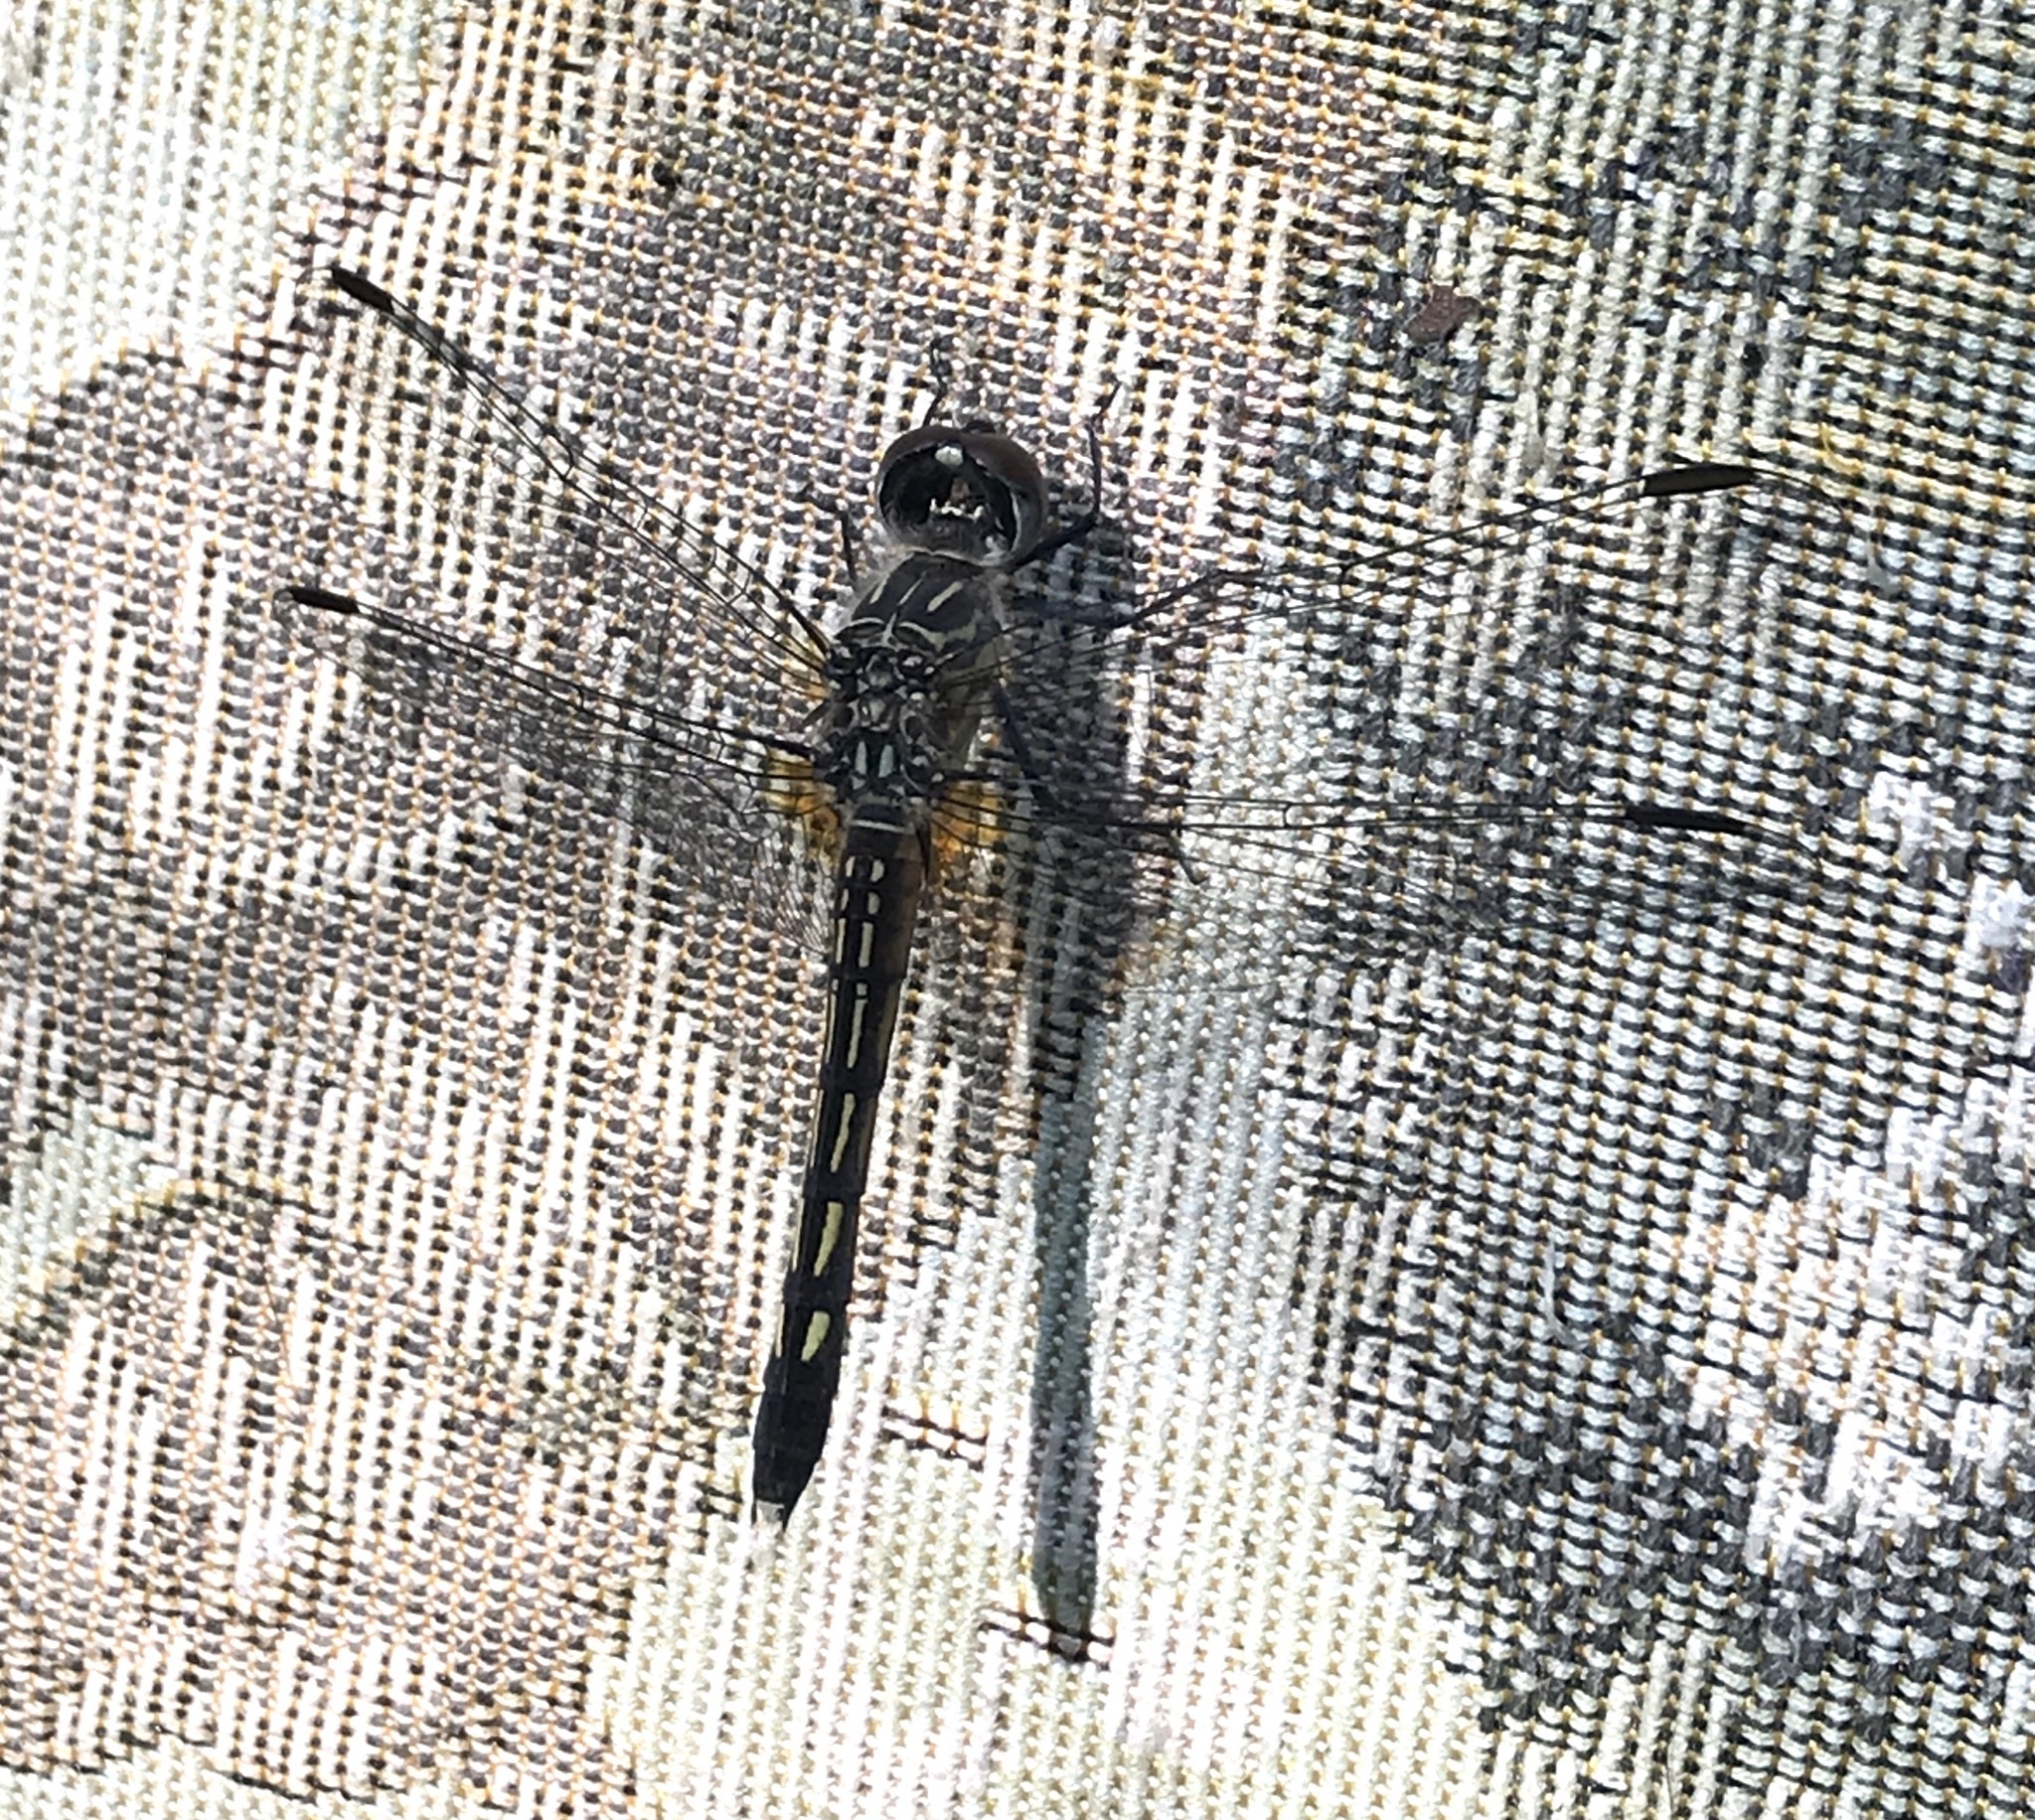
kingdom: Animalia
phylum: Arthropoda
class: Insecta
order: Odonata
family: Libellulidae
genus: Pachydiplax
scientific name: Pachydiplax longipennis
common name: Blue dasher
